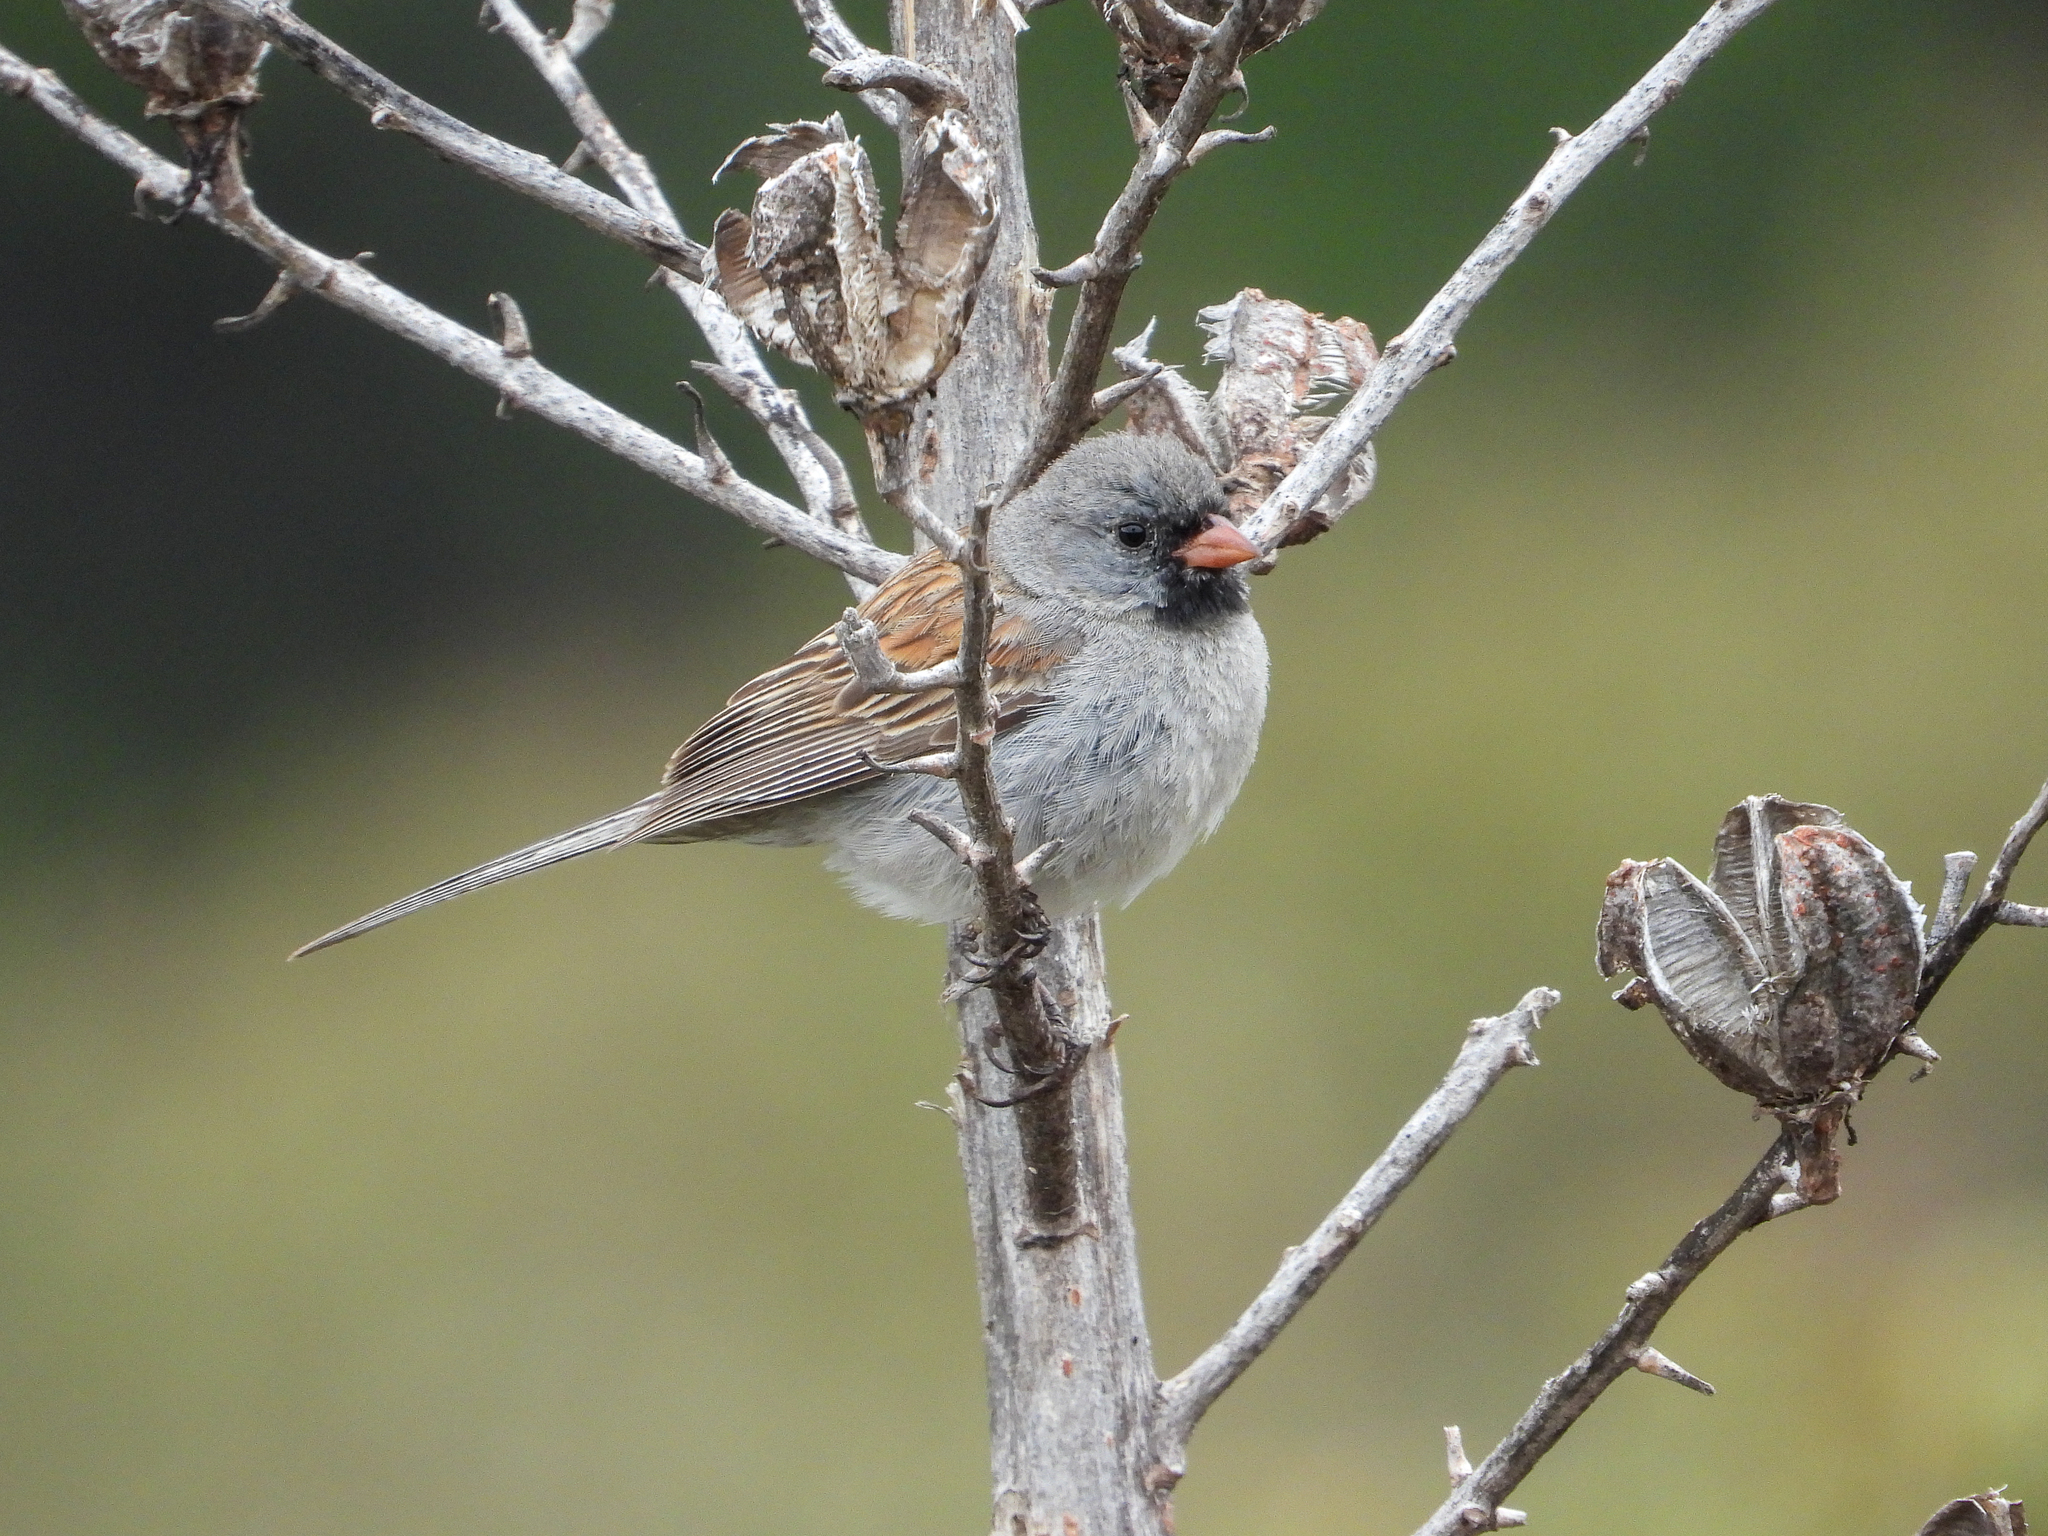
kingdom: Animalia
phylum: Chordata
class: Aves
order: Passeriformes
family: Passerellidae
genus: Spizella
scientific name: Spizella atrogularis
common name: Black-chinned sparrow
